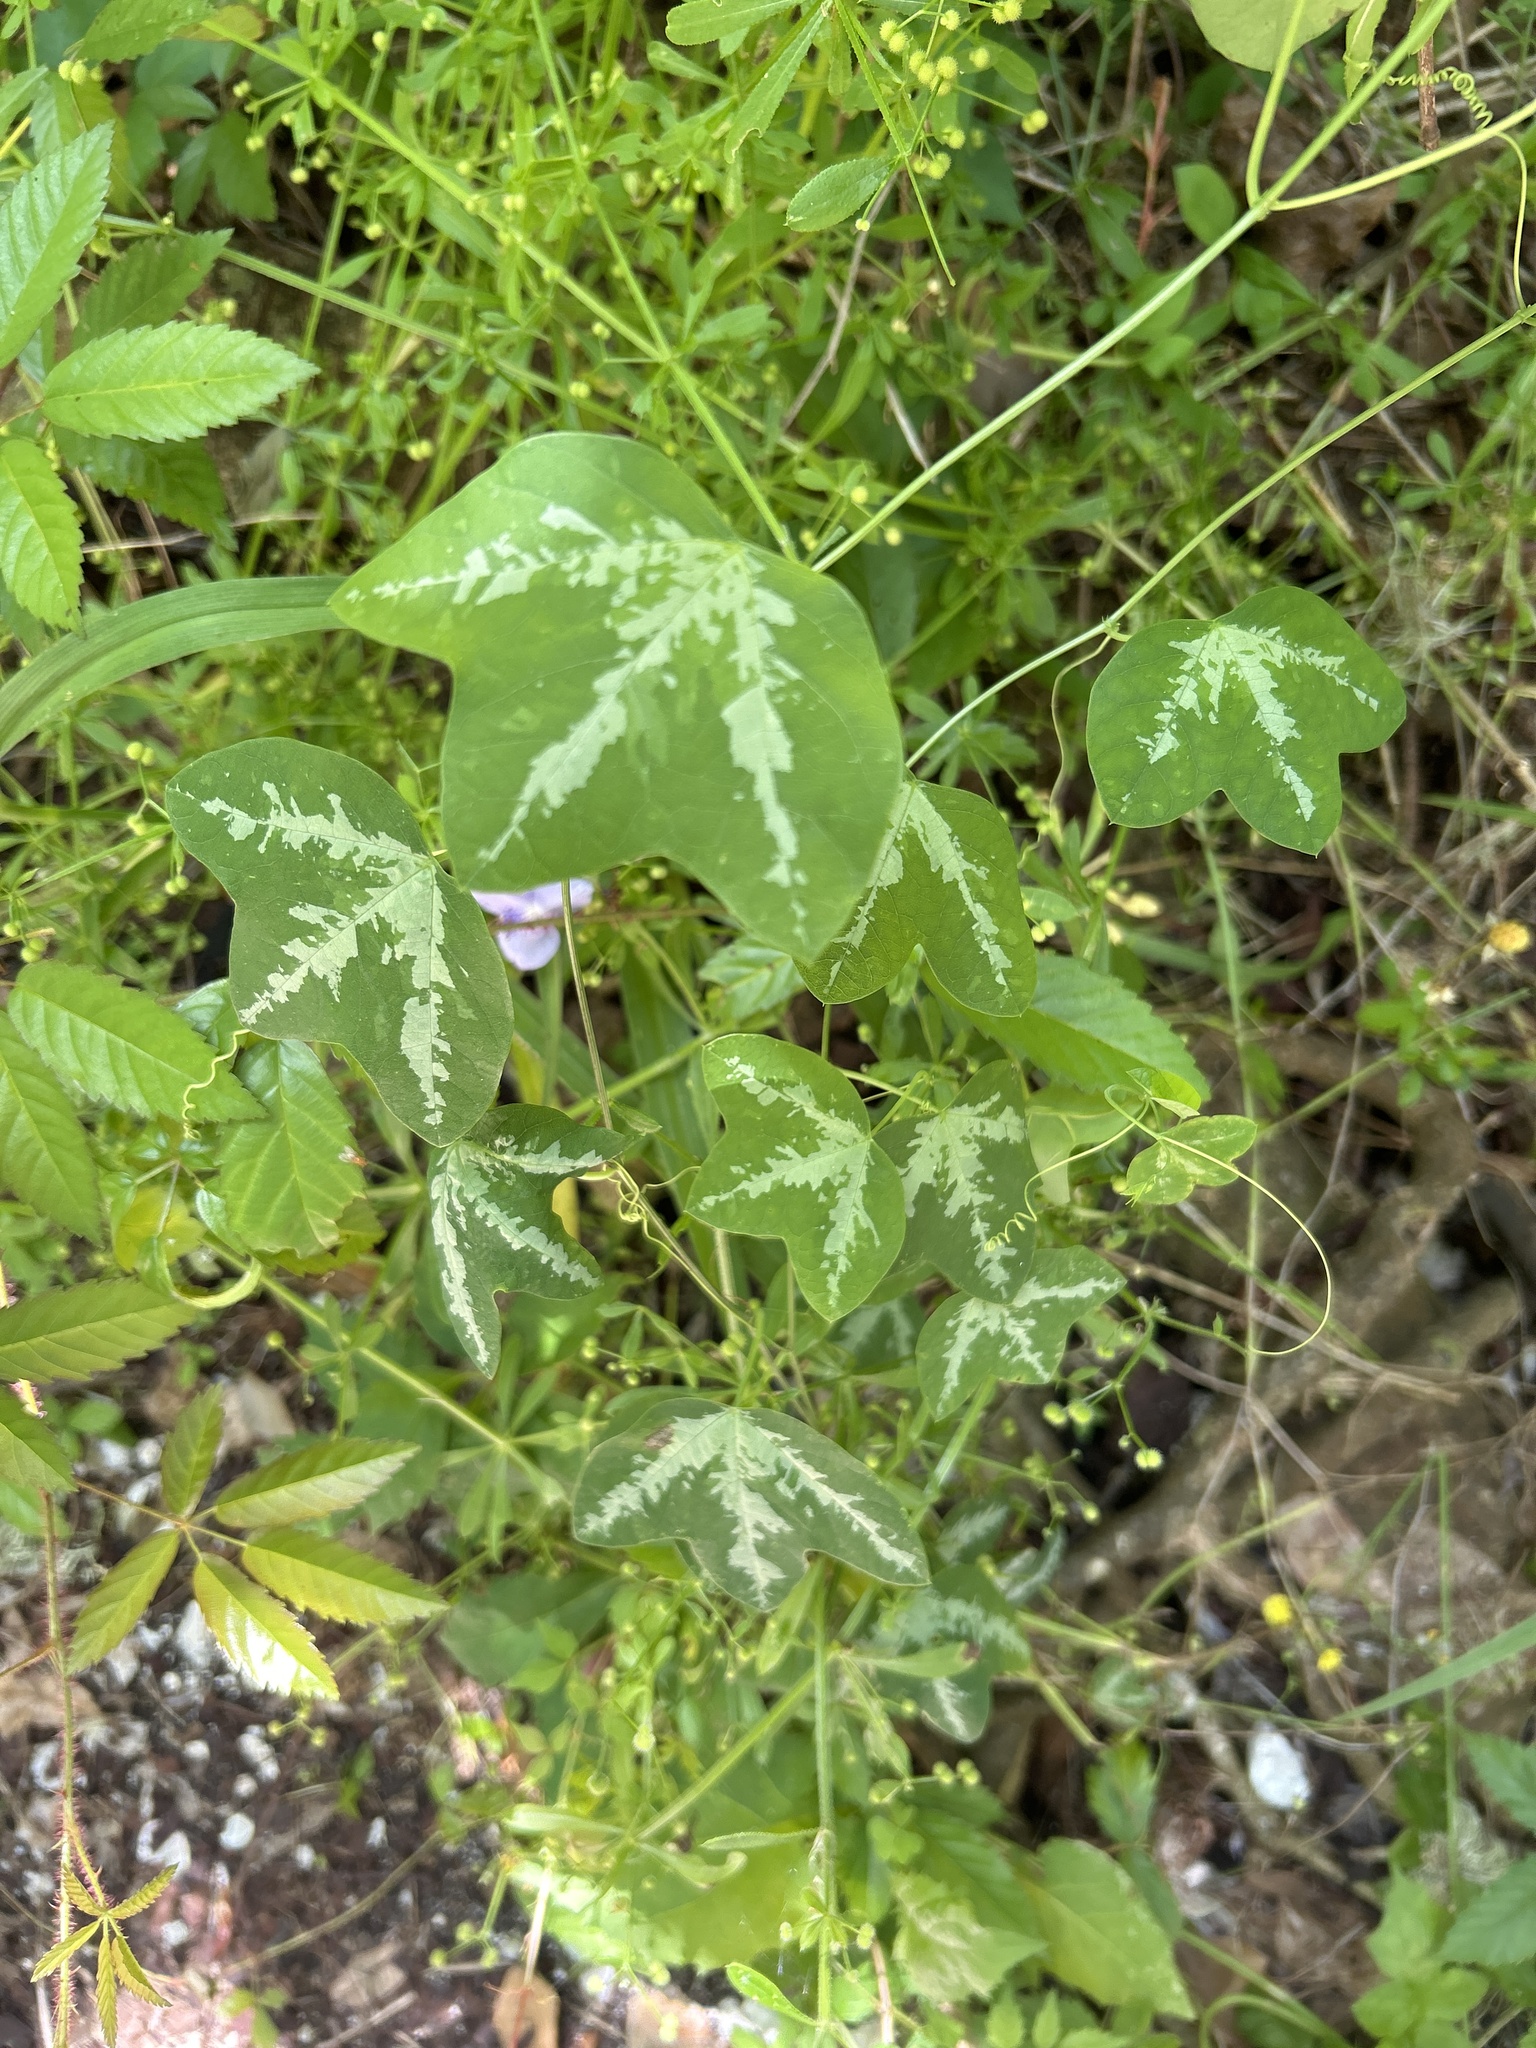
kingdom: Plantae
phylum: Tracheophyta
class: Magnoliopsida
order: Malpighiales
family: Passifloraceae
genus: Passiflora
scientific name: Passiflora lutea
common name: Yellow passionflower
